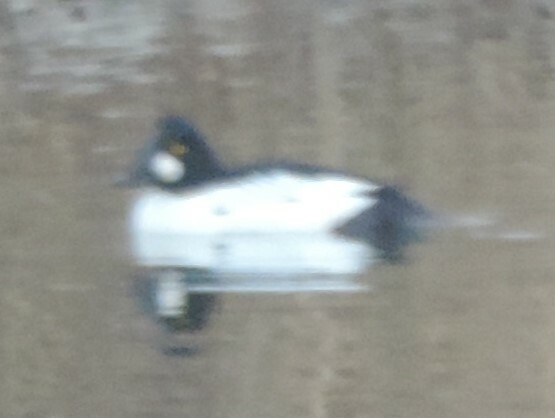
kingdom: Animalia
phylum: Chordata
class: Aves
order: Anseriformes
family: Anatidae
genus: Bucephala
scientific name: Bucephala clangula
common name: Common goldeneye
